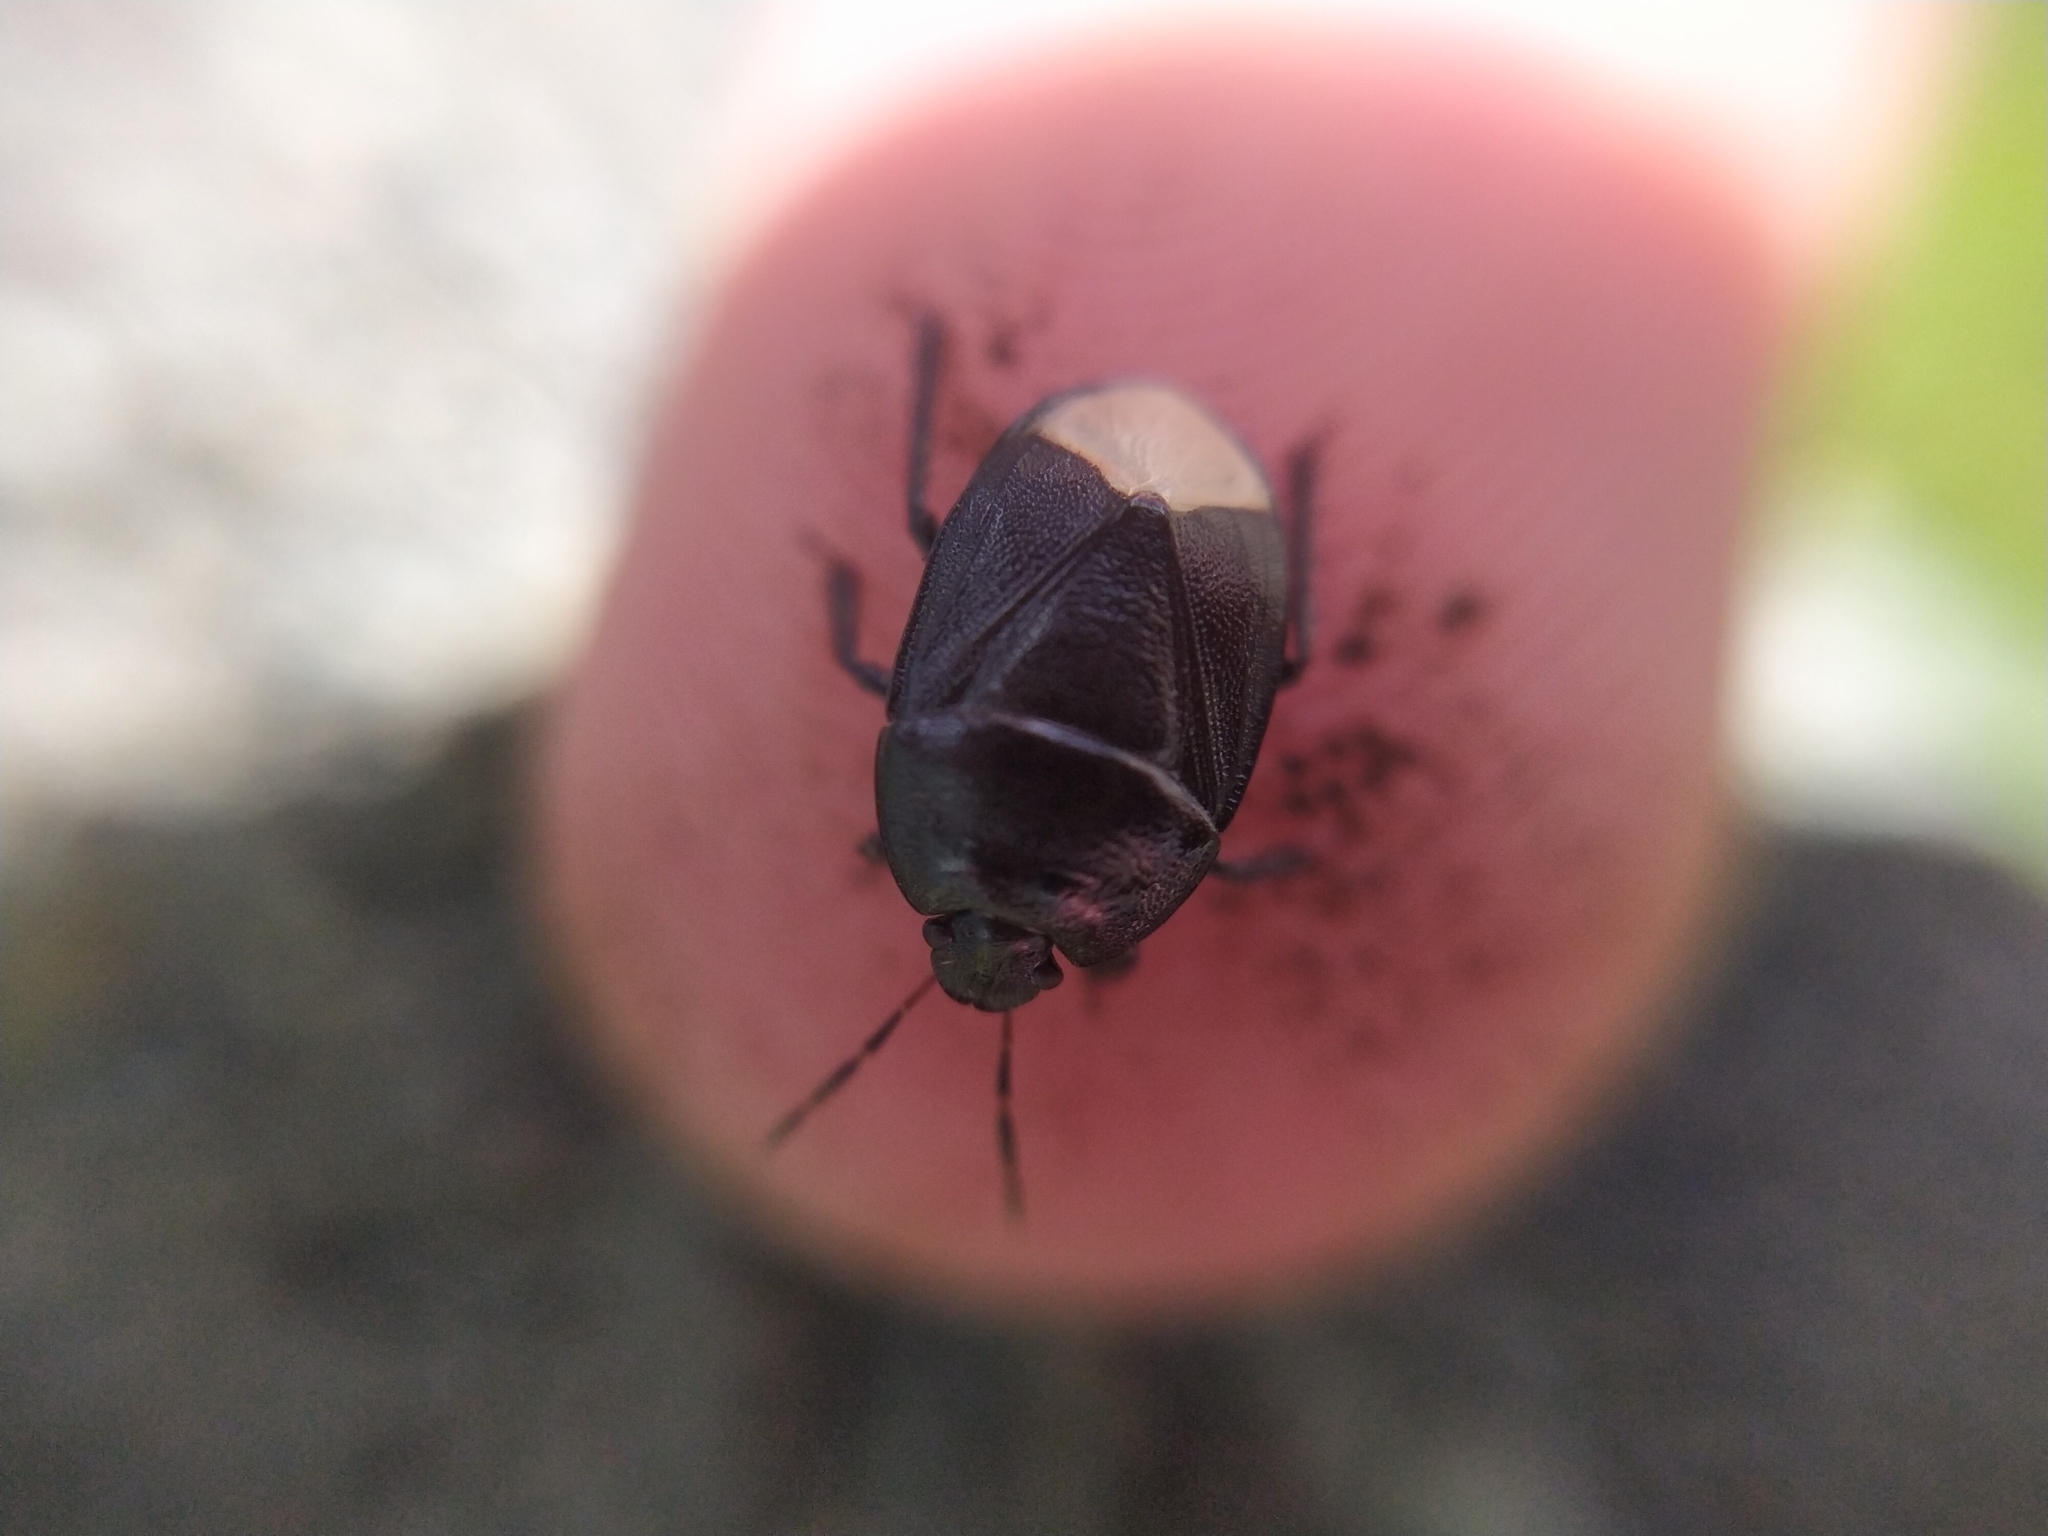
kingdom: Animalia
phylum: Arthropoda
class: Insecta
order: Hemiptera
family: Cydnidae
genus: Sehirus
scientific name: Sehirus luctuosus
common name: Forget-me-not shieldbug
